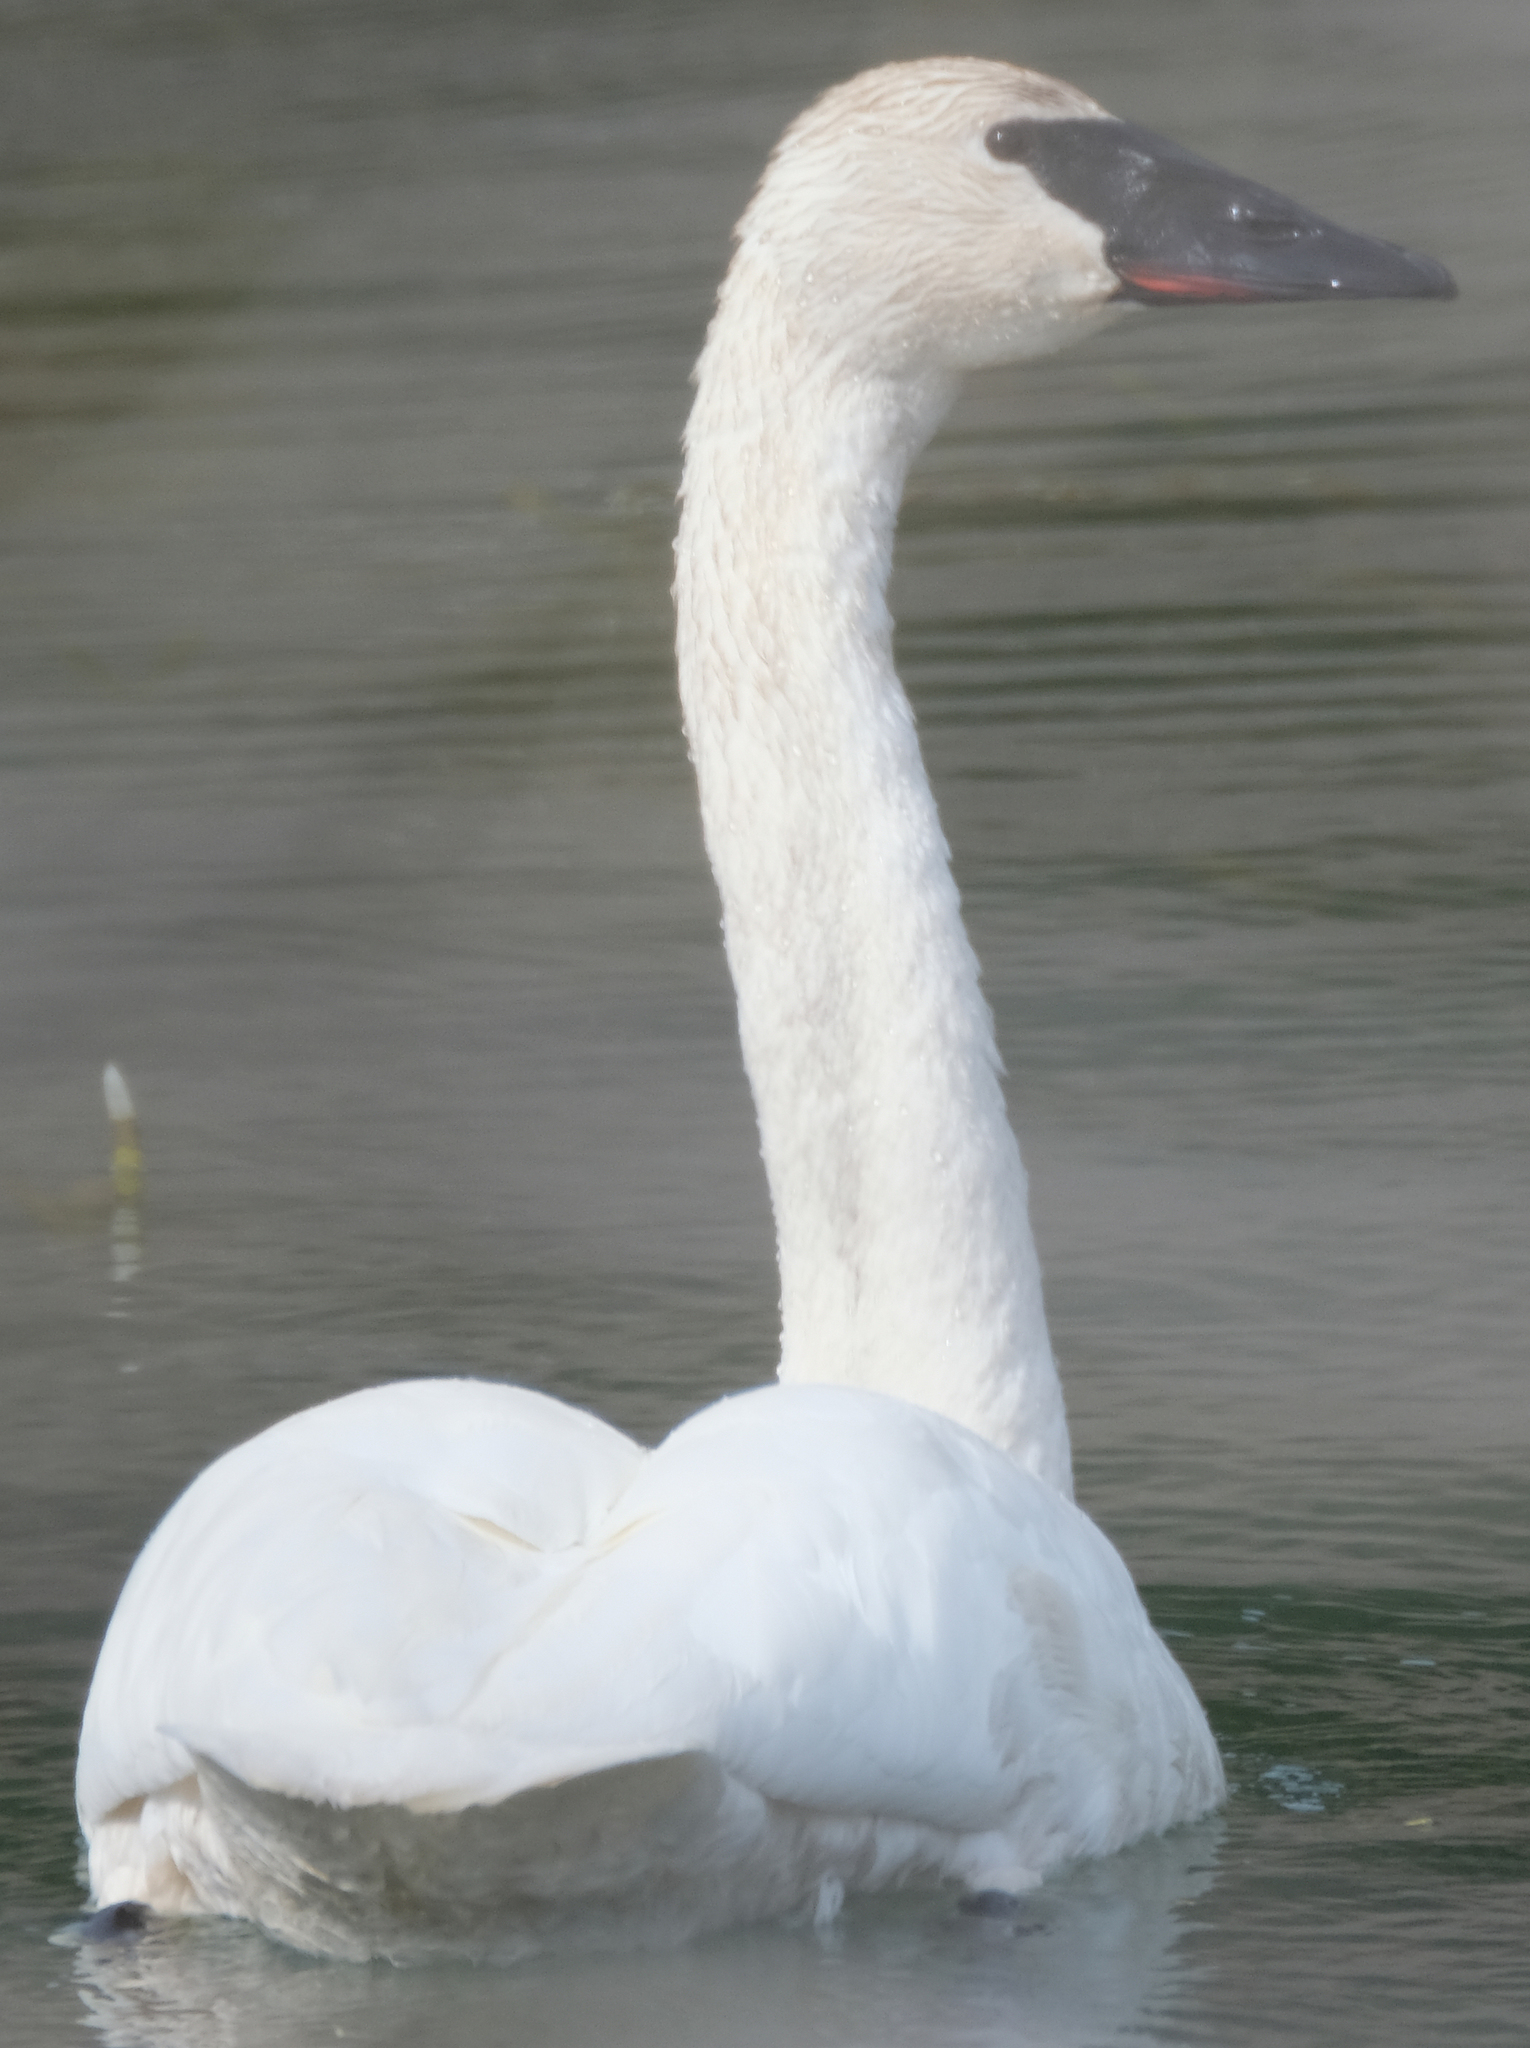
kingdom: Animalia
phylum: Chordata
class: Aves
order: Anseriformes
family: Anatidae
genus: Cygnus
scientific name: Cygnus buccinator
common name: Trumpeter swan
